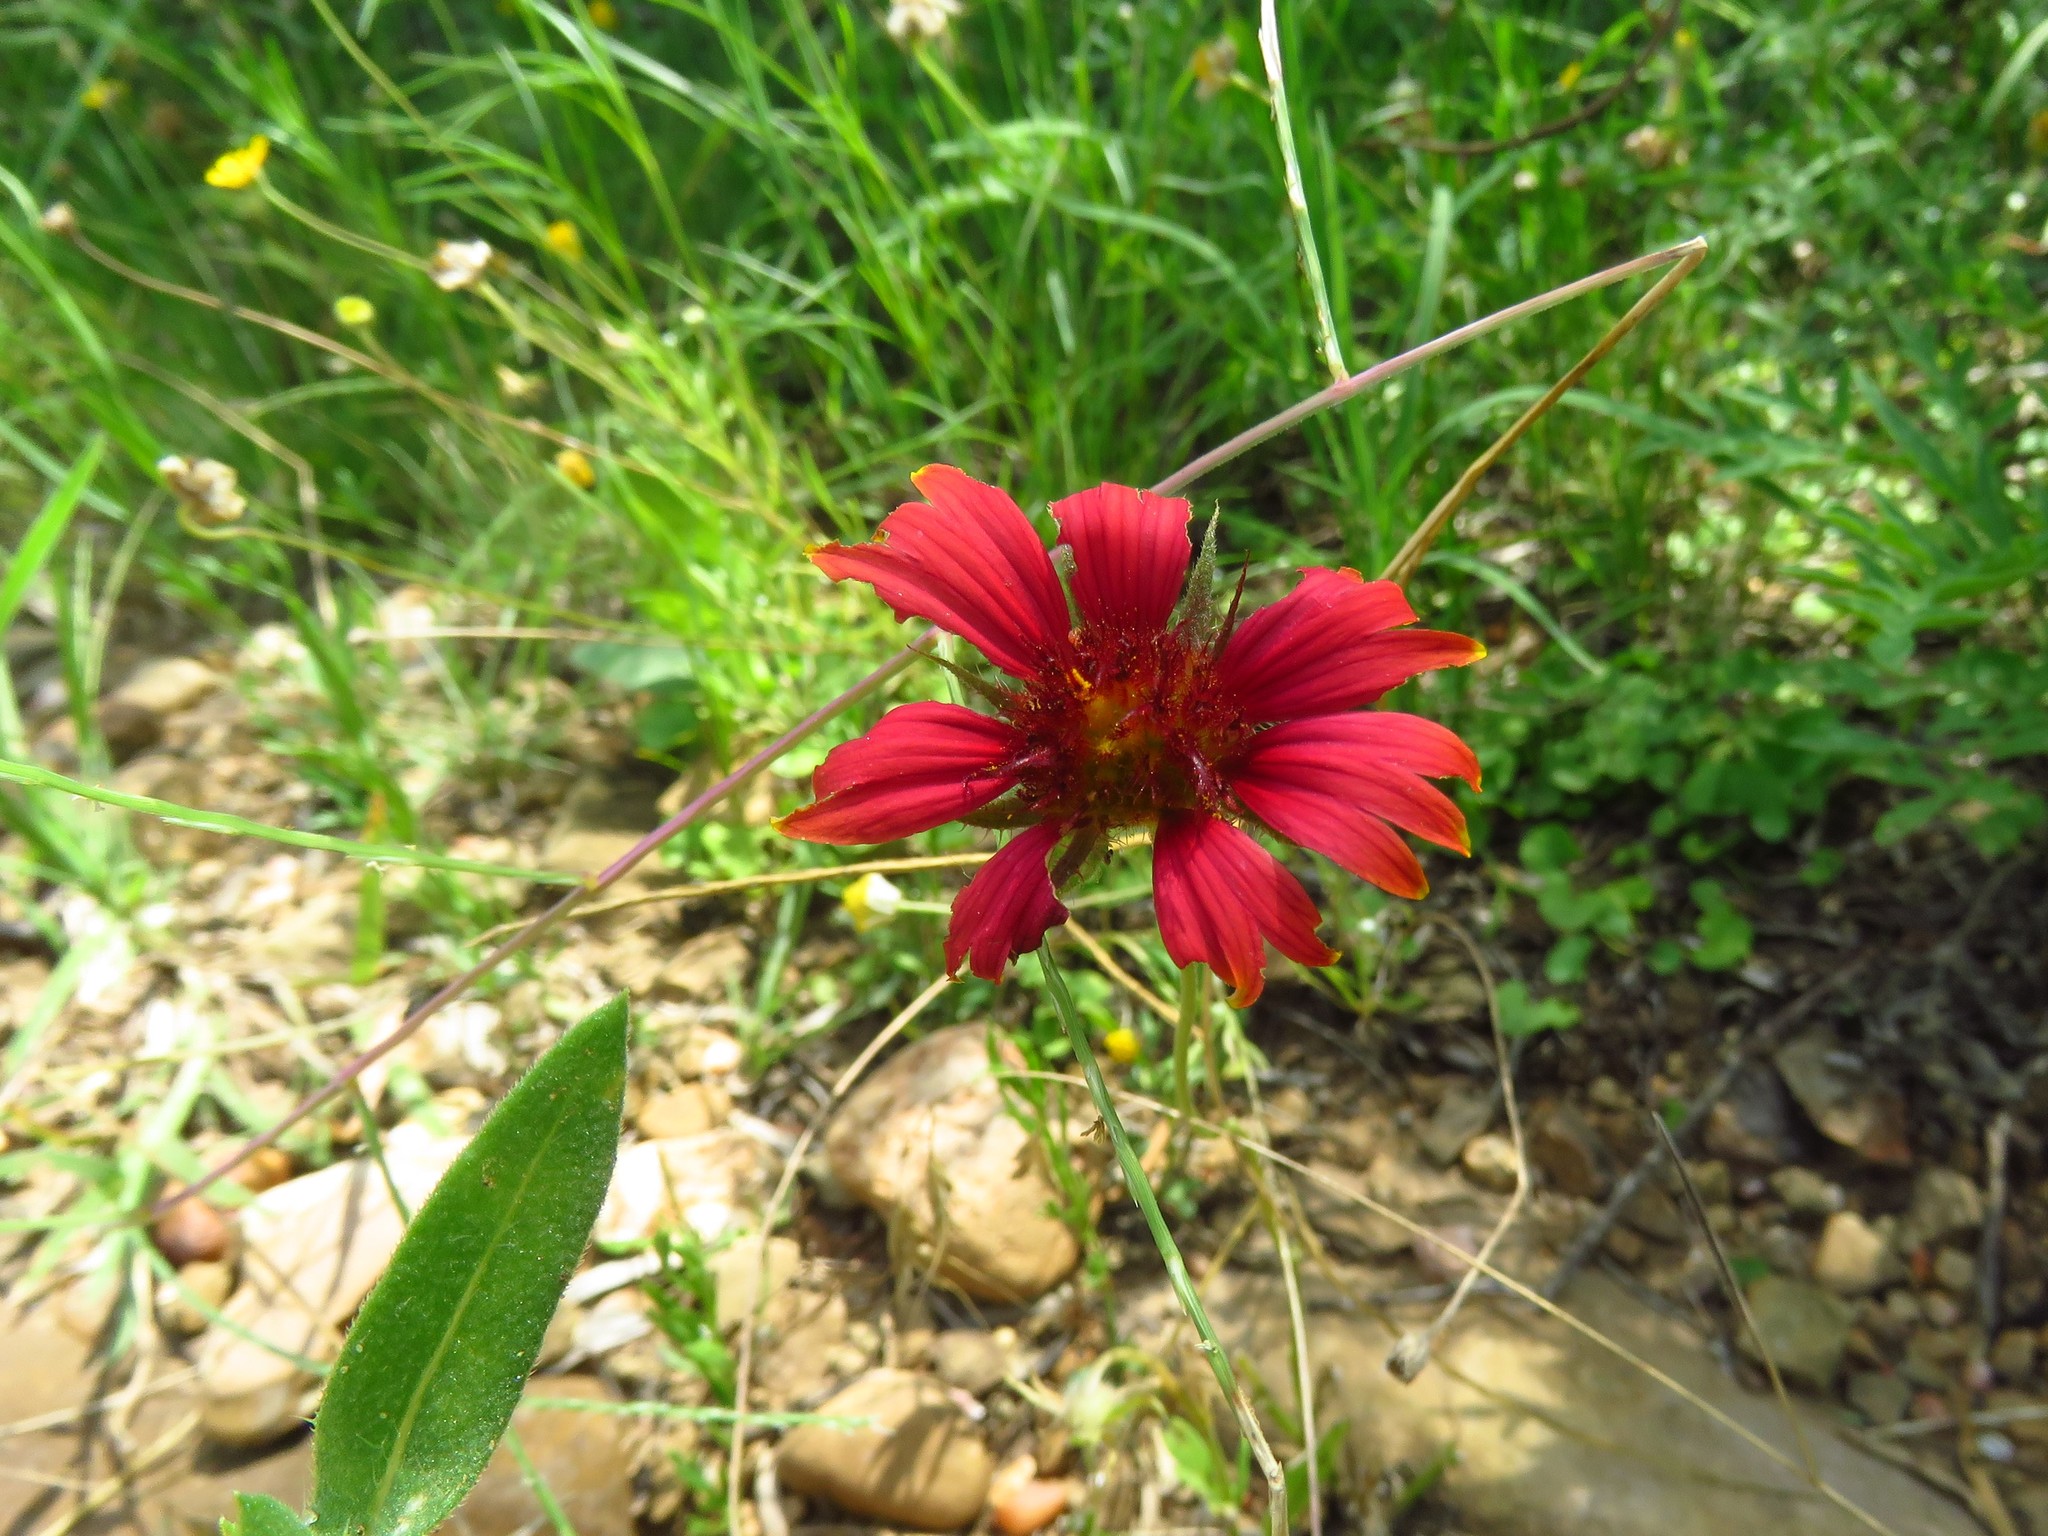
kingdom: Plantae
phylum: Tracheophyta
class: Magnoliopsida
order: Asterales
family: Asteraceae
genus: Gaillardia
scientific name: Gaillardia pulchella
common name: Firewheel
